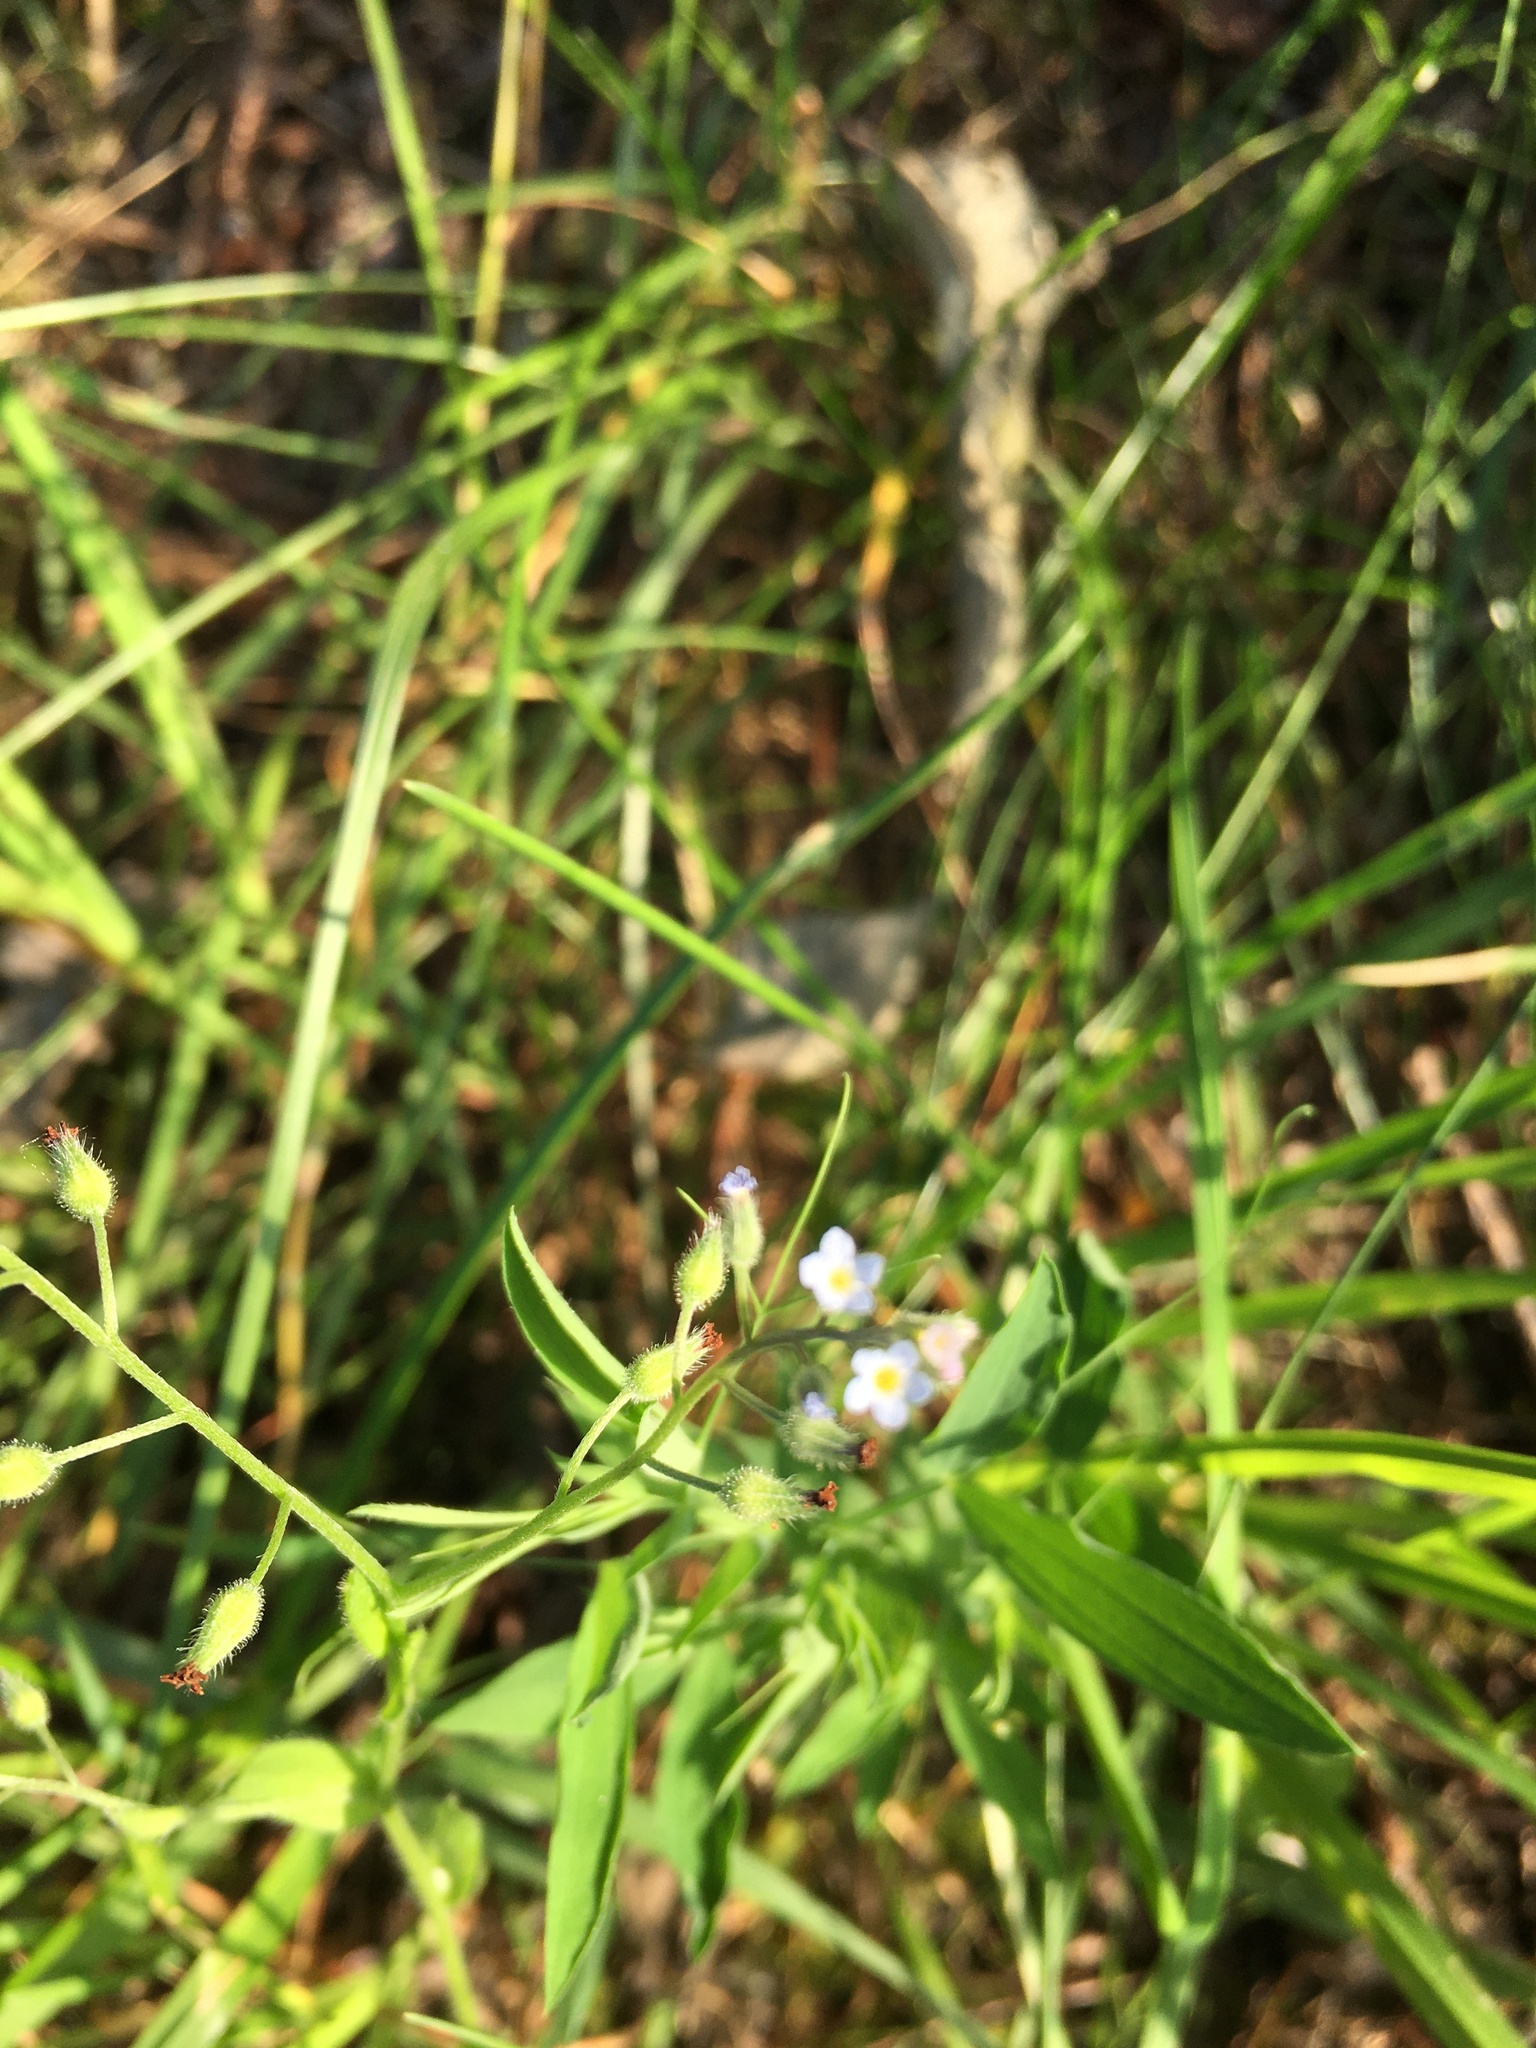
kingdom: Plantae
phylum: Tracheophyta
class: Magnoliopsida
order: Boraginales
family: Boraginaceae
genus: Myosotis
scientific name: Myosotis arvensis
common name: Field forget-me-not
